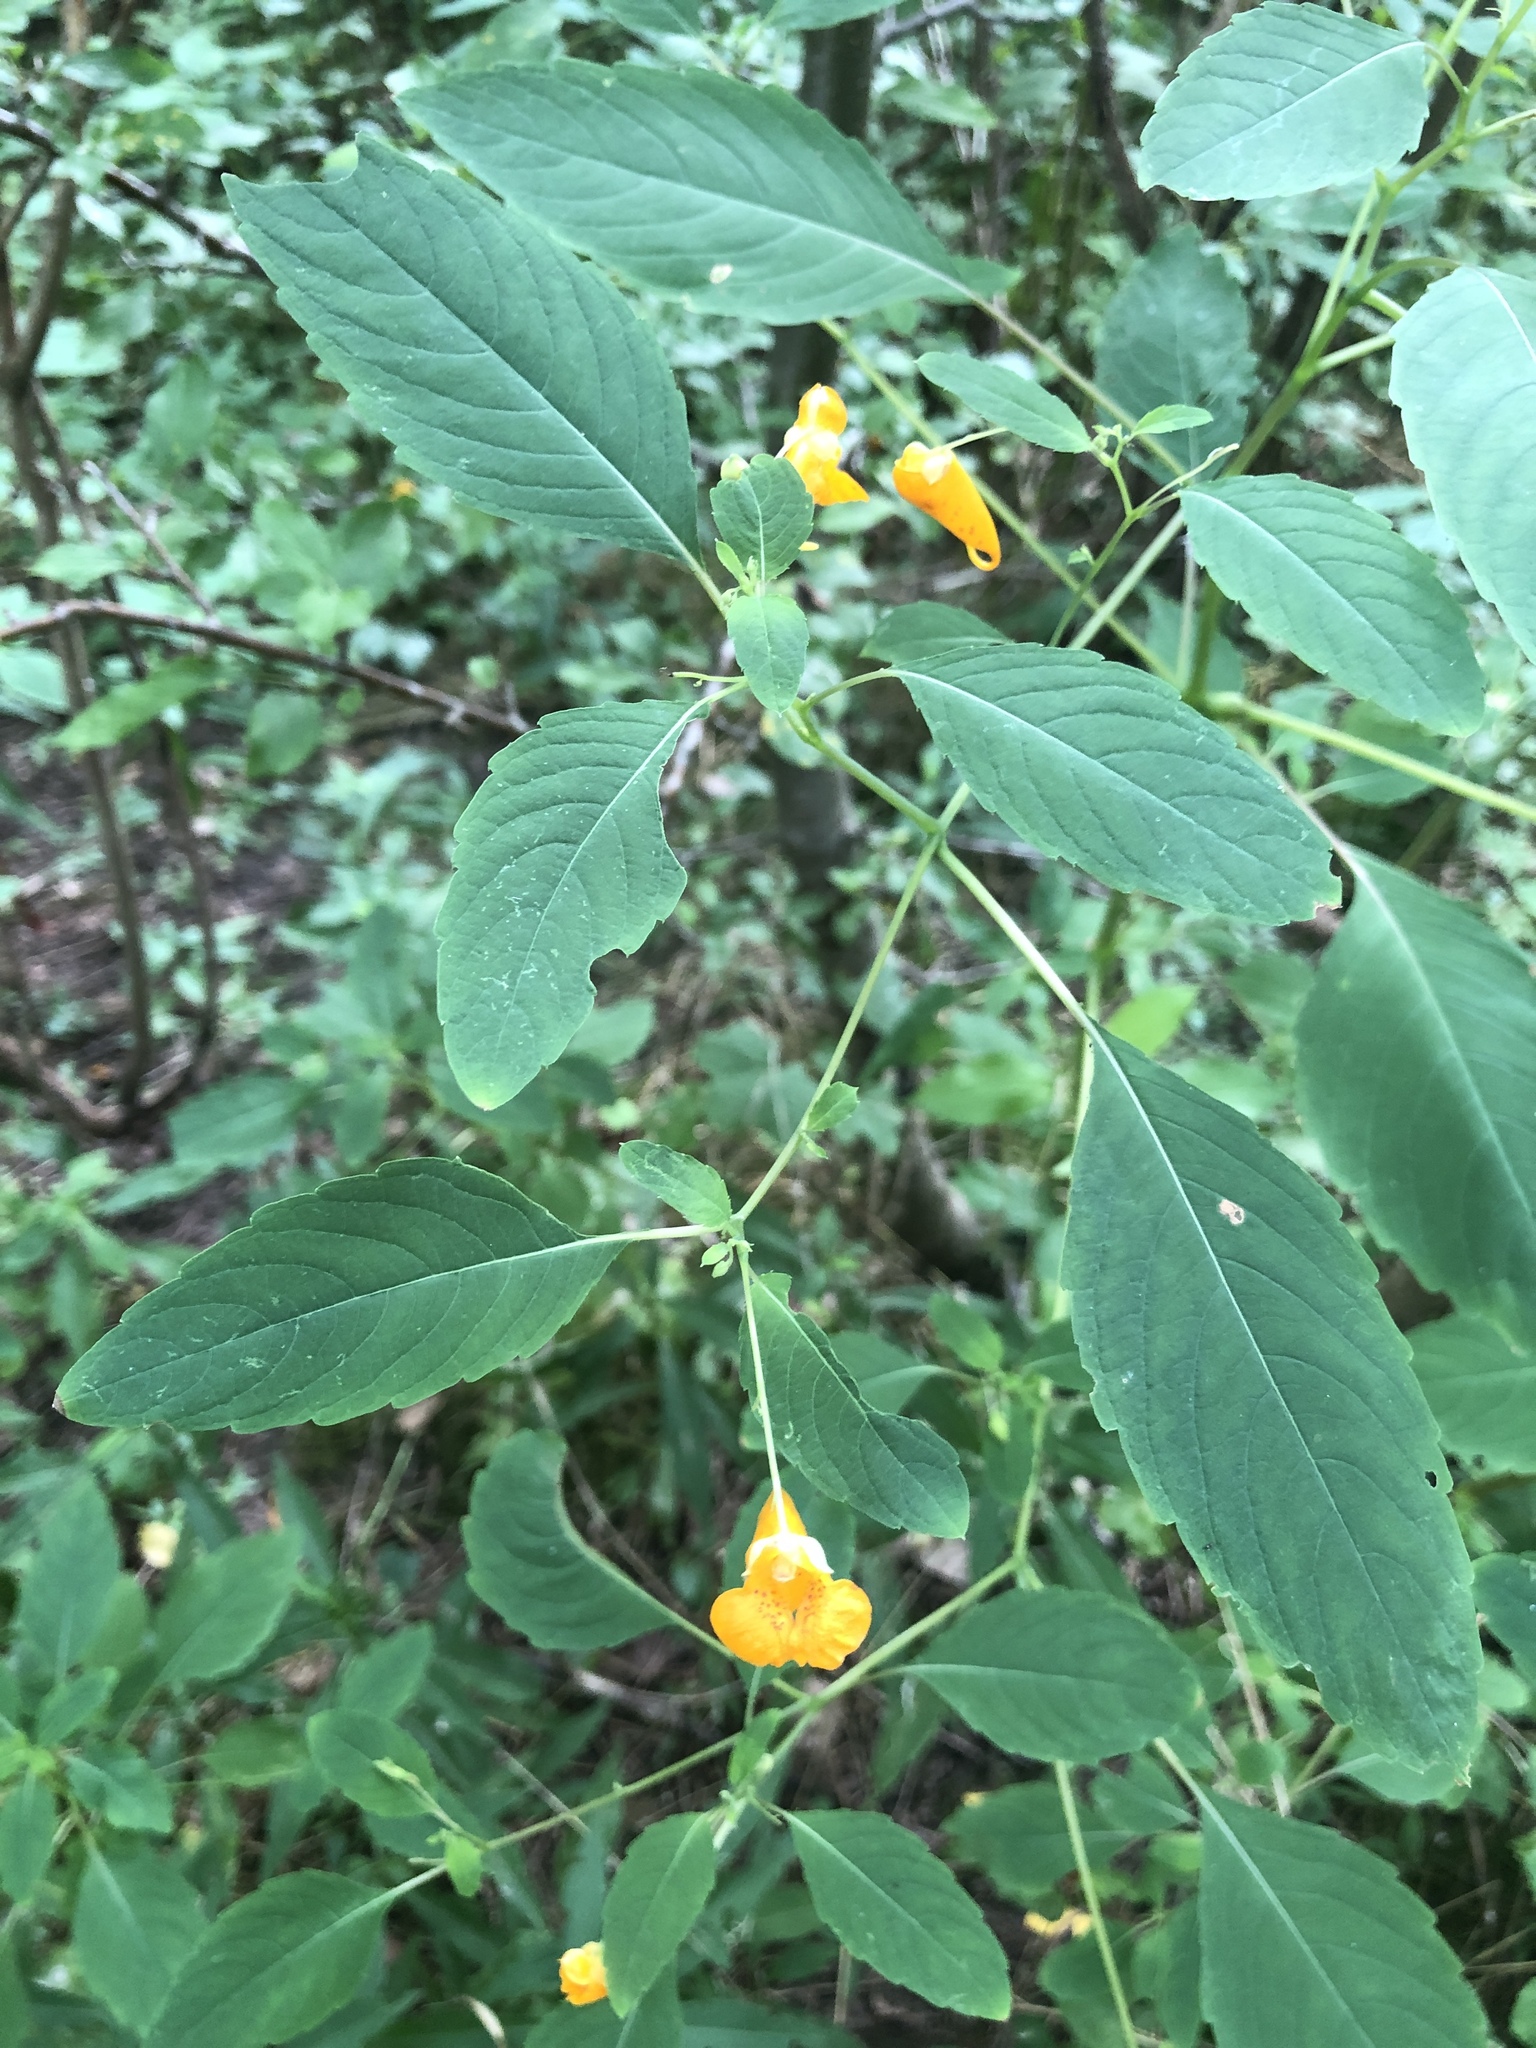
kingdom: Plantae
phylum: Tracheophyta
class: Magnoliopsida
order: Ericales
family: Balsaminaceae
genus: Impatiens
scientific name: Impatiens capensis
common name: Orange balsam
